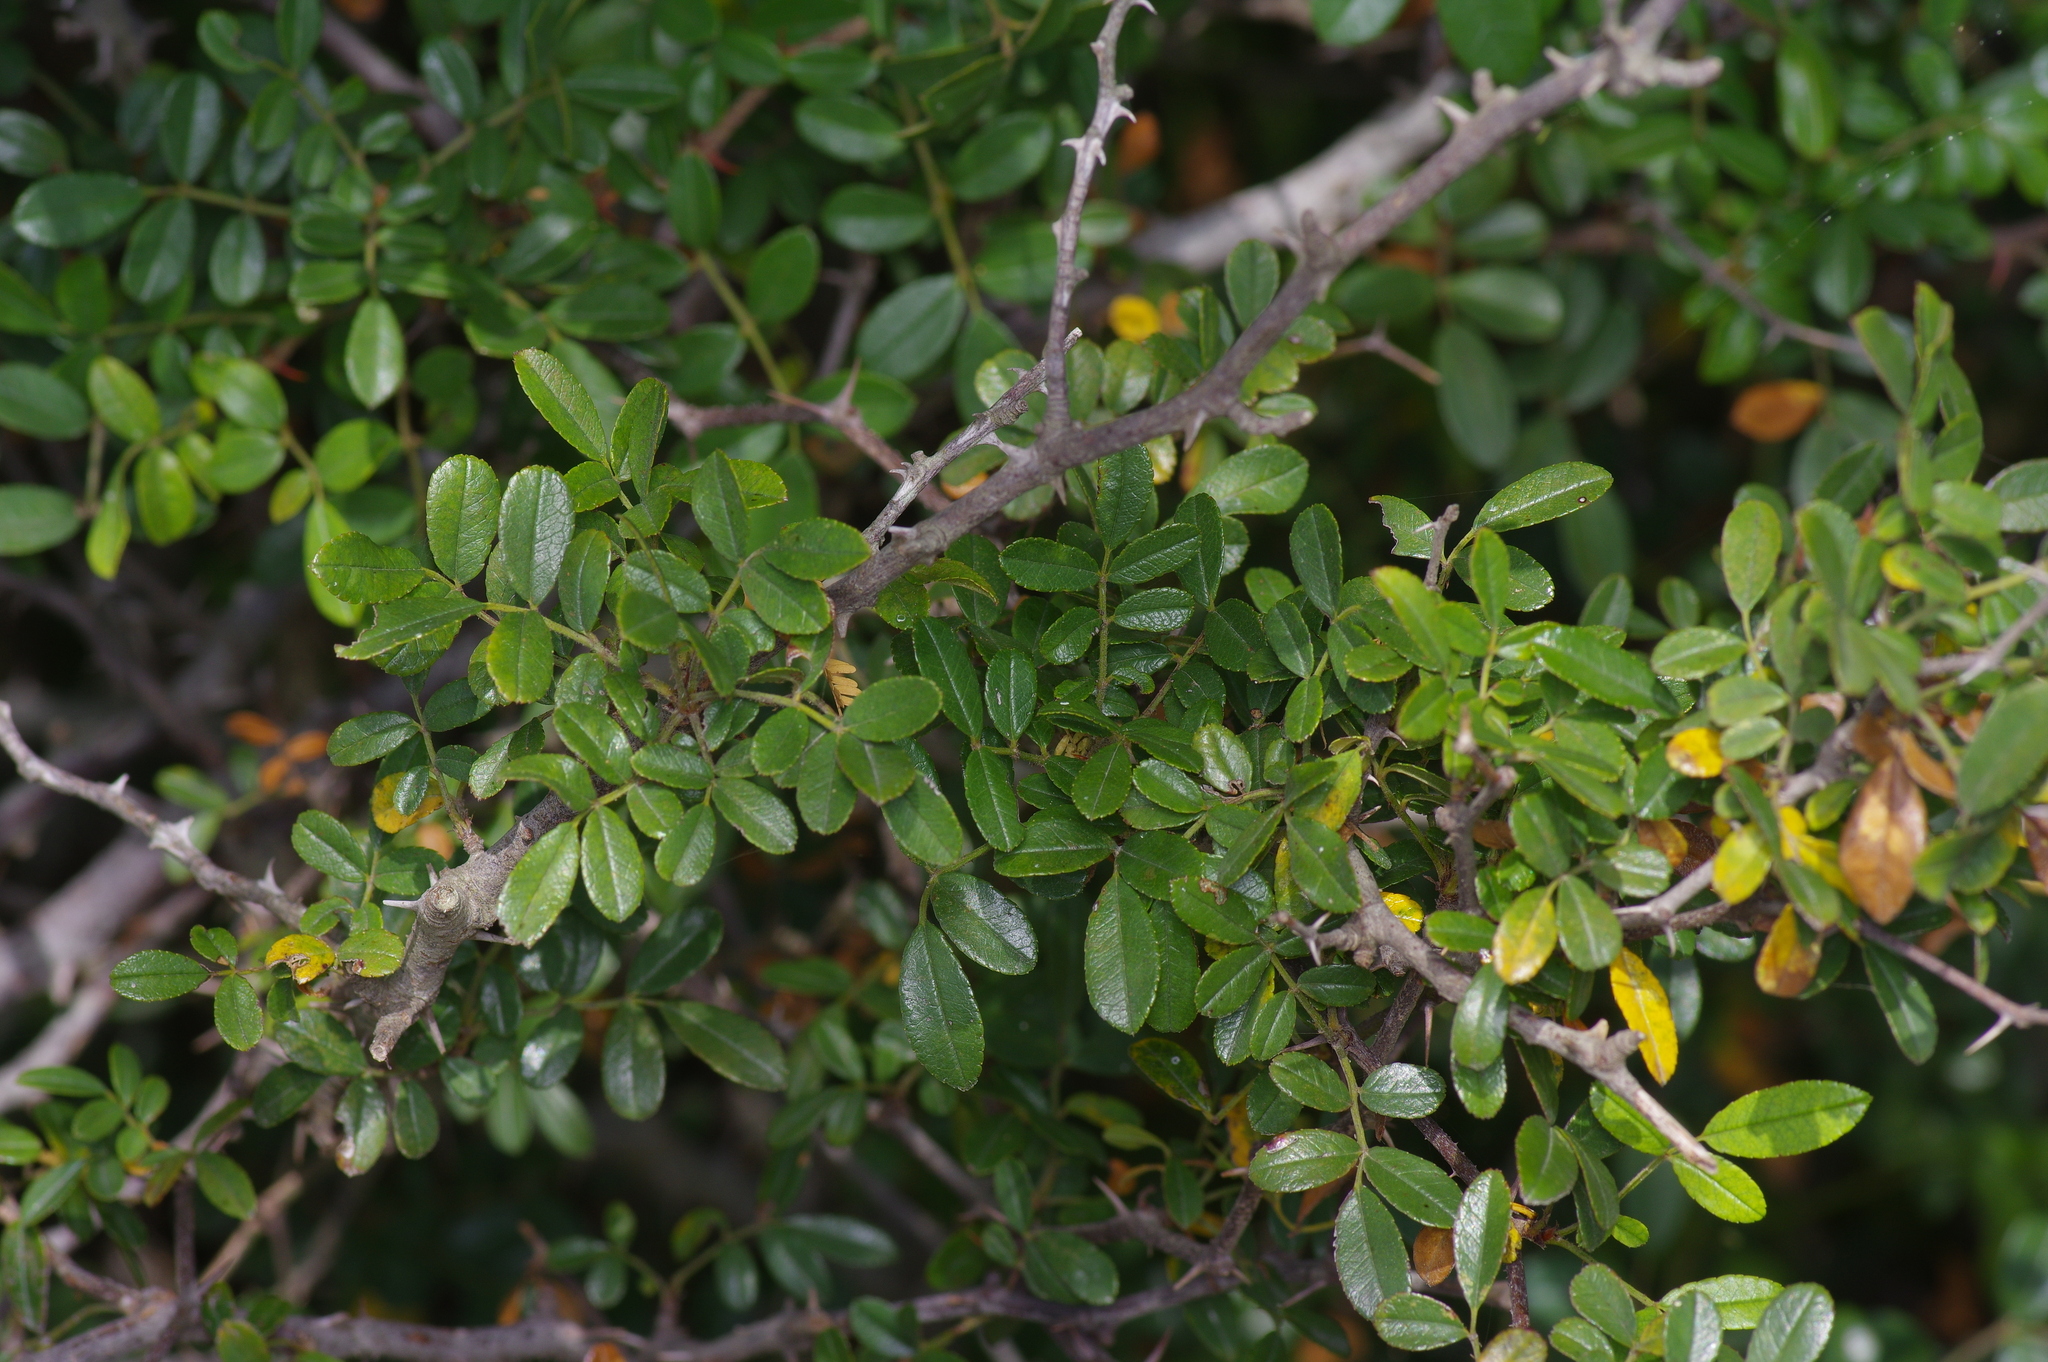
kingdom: Plantae
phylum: Tracheophyta
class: Magnoliopsida
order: Rosales
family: Rosaceae
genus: Rosa
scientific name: Rosa bracteata
